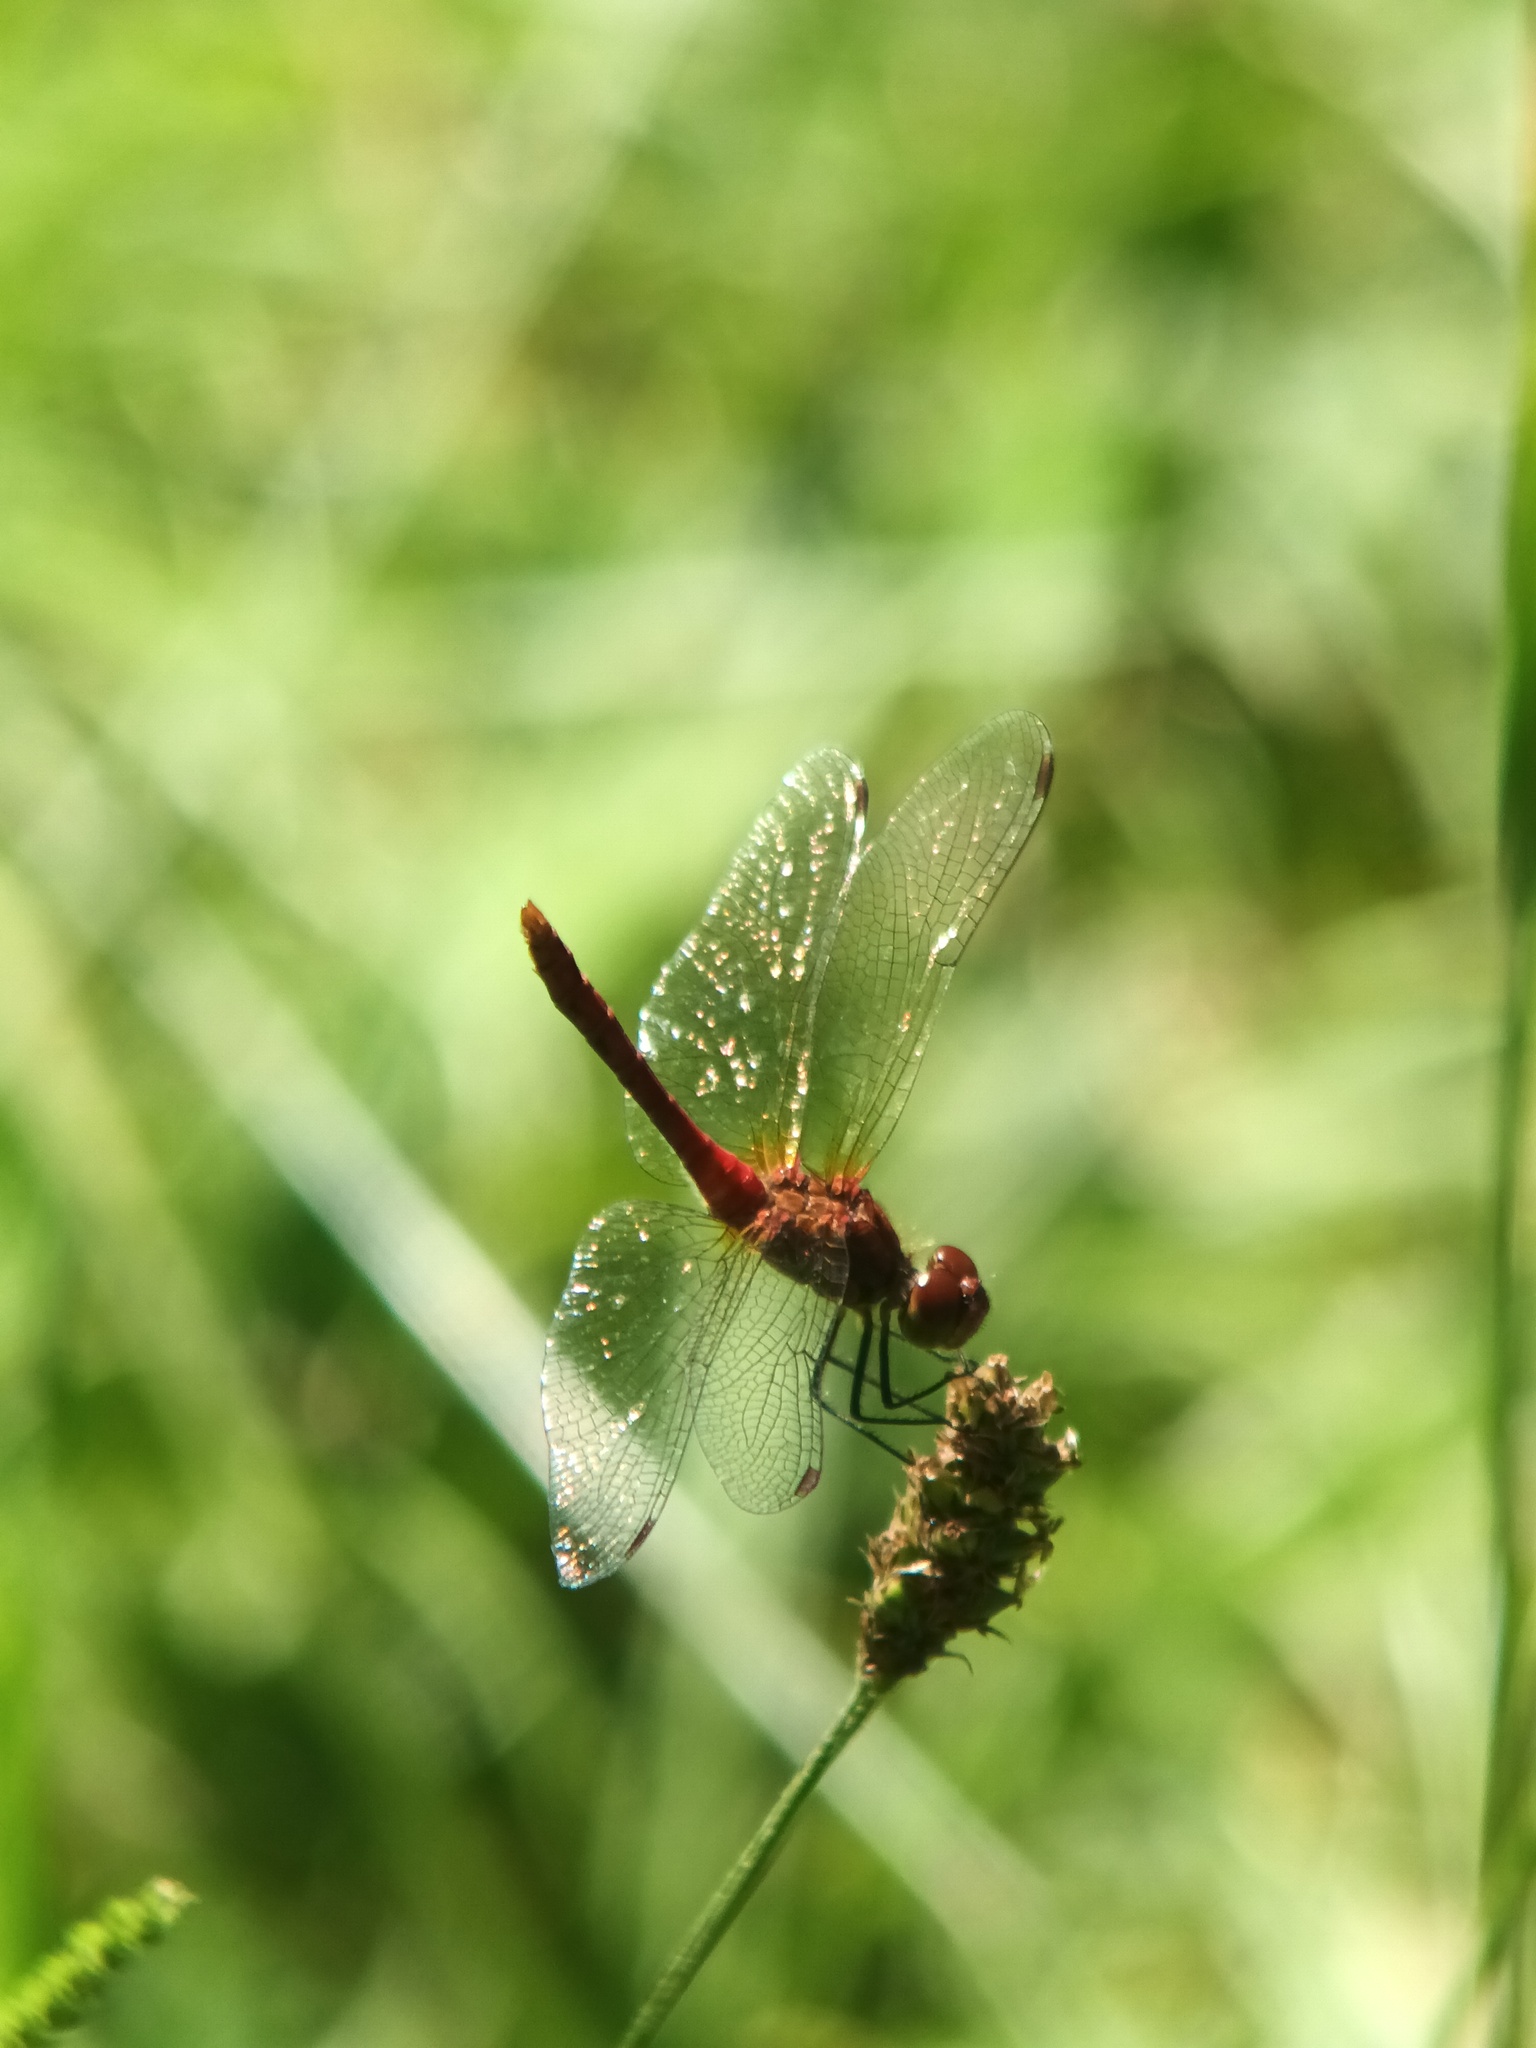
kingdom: Animalia
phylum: Arthropoda
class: Insecta
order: Odonata
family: Libellulidae
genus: Sympetrum
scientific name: Sympetrum sanguineum
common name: Ruddy darter
